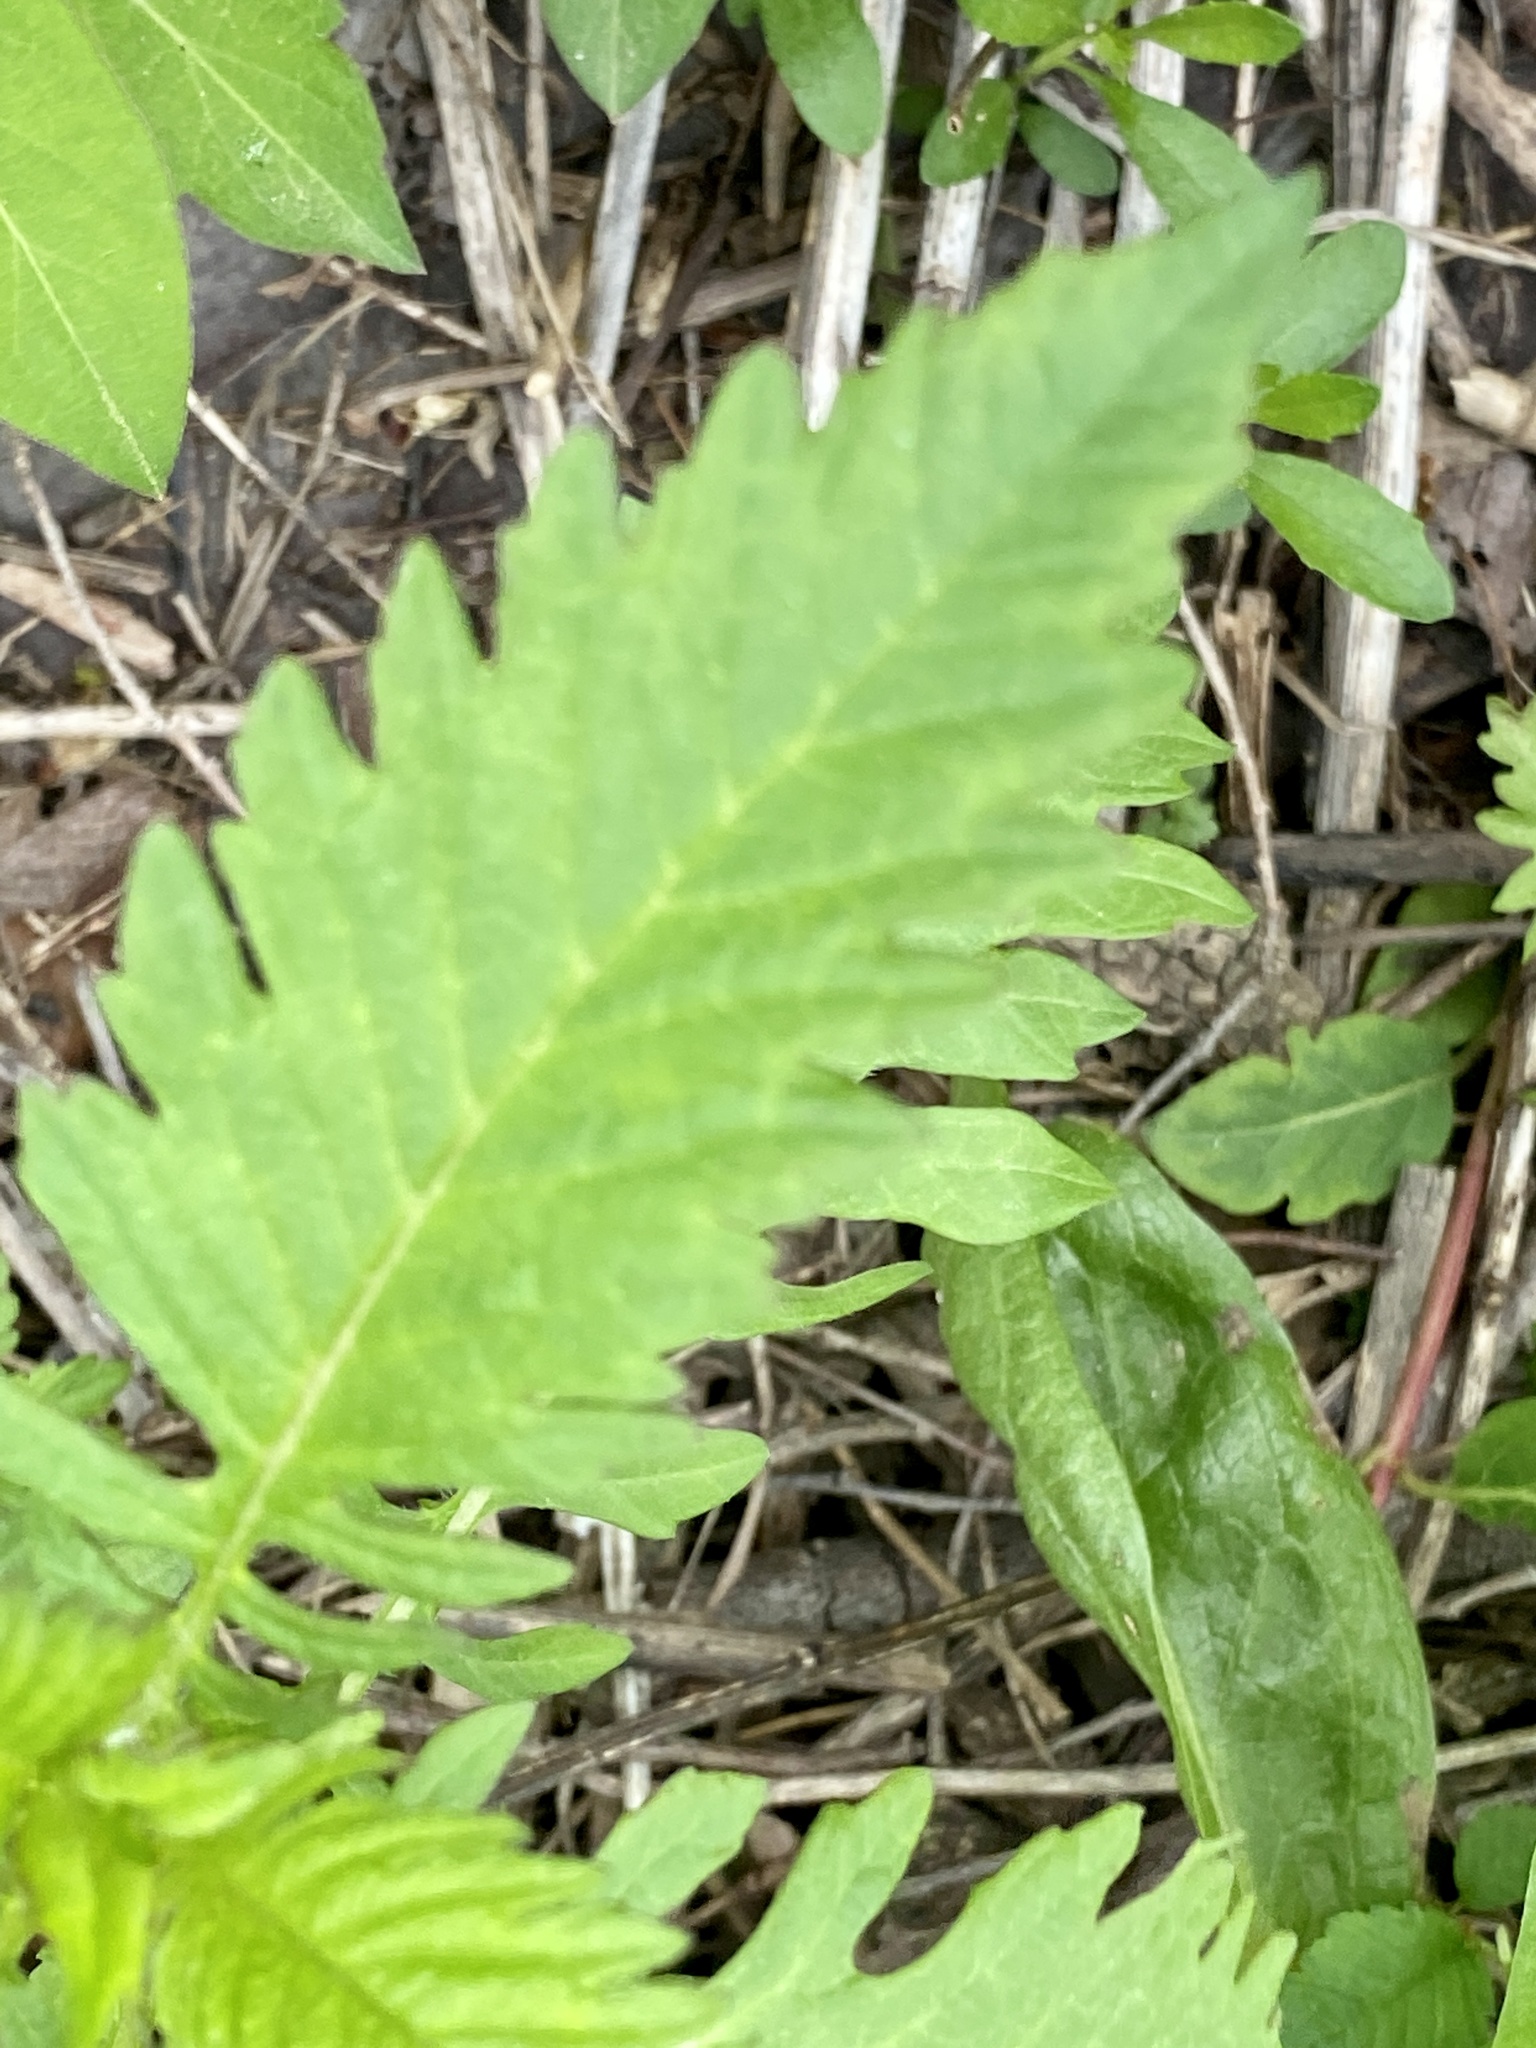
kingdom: Plantae
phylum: Tracheophyta
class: Magnoliopsida
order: Lamiales
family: Lamiaceae
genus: Lycopus
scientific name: Lycopus europaeus
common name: European bugleweed
